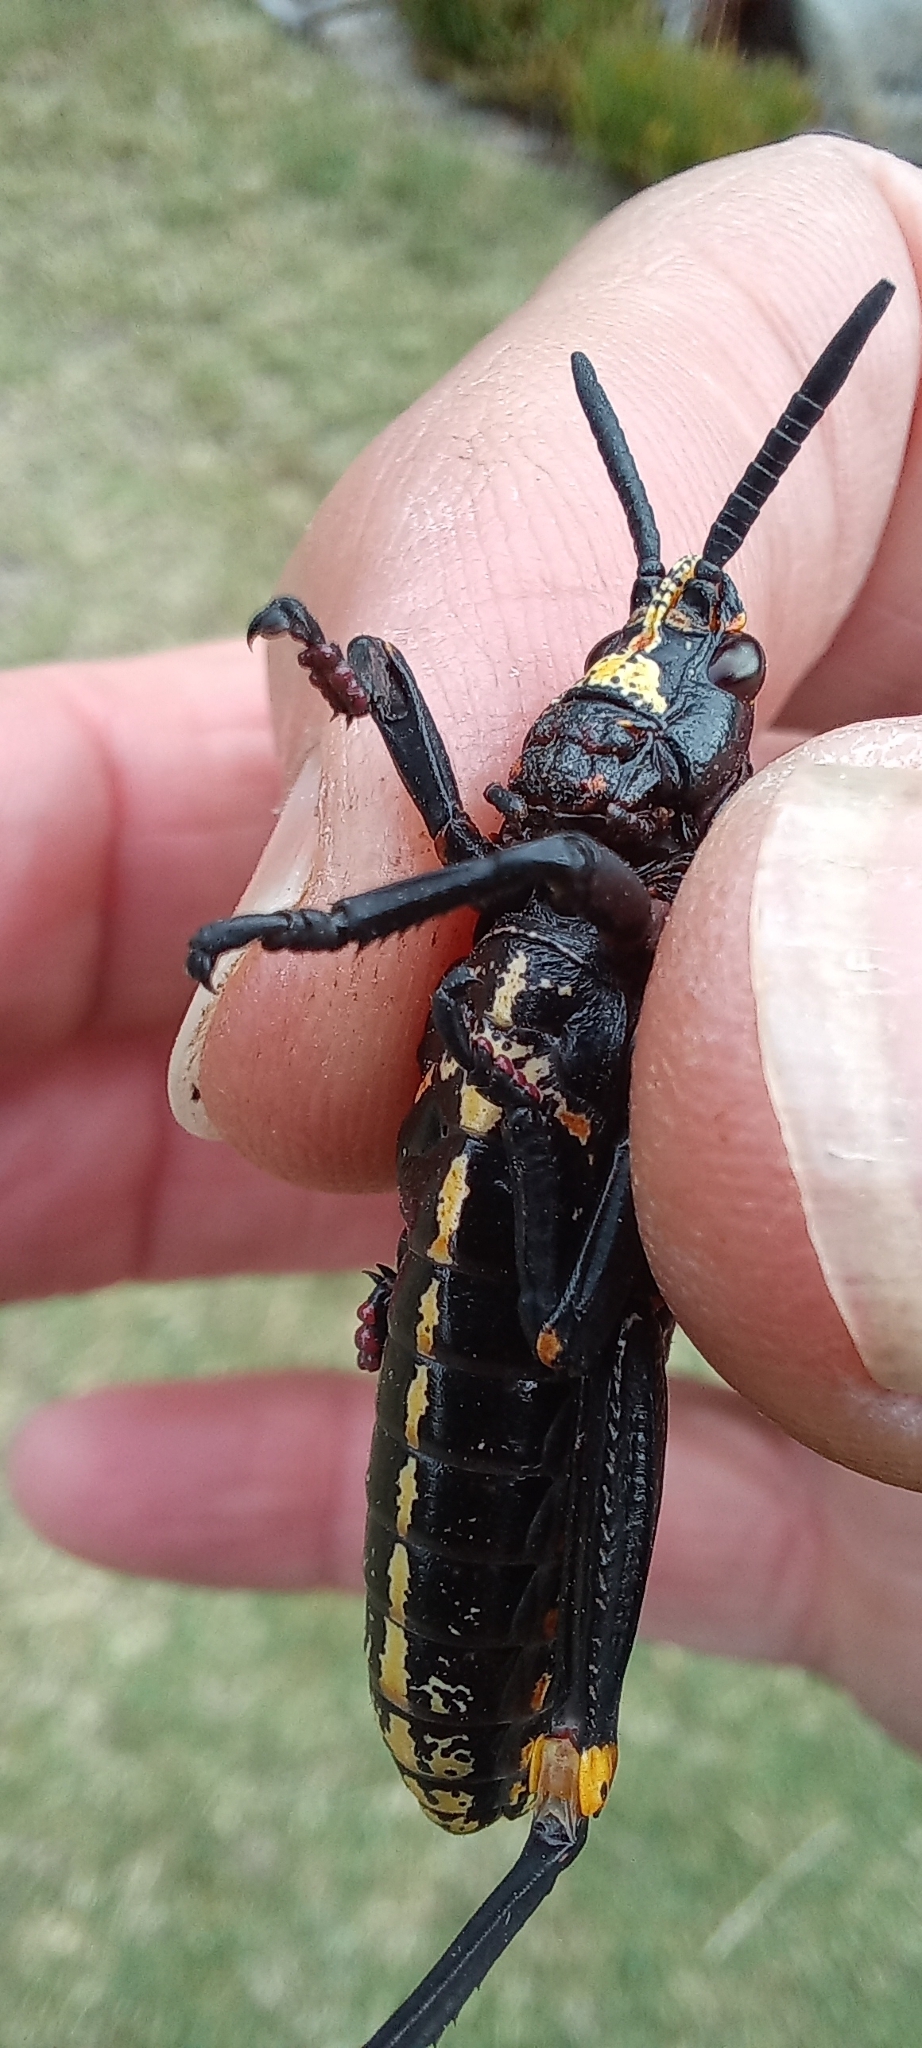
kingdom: Animalia
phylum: Arthropoda
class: Insecta
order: Orthoptera
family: Pyrgomorphidae
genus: Dictyophorus
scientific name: Dictyophorus spumans
